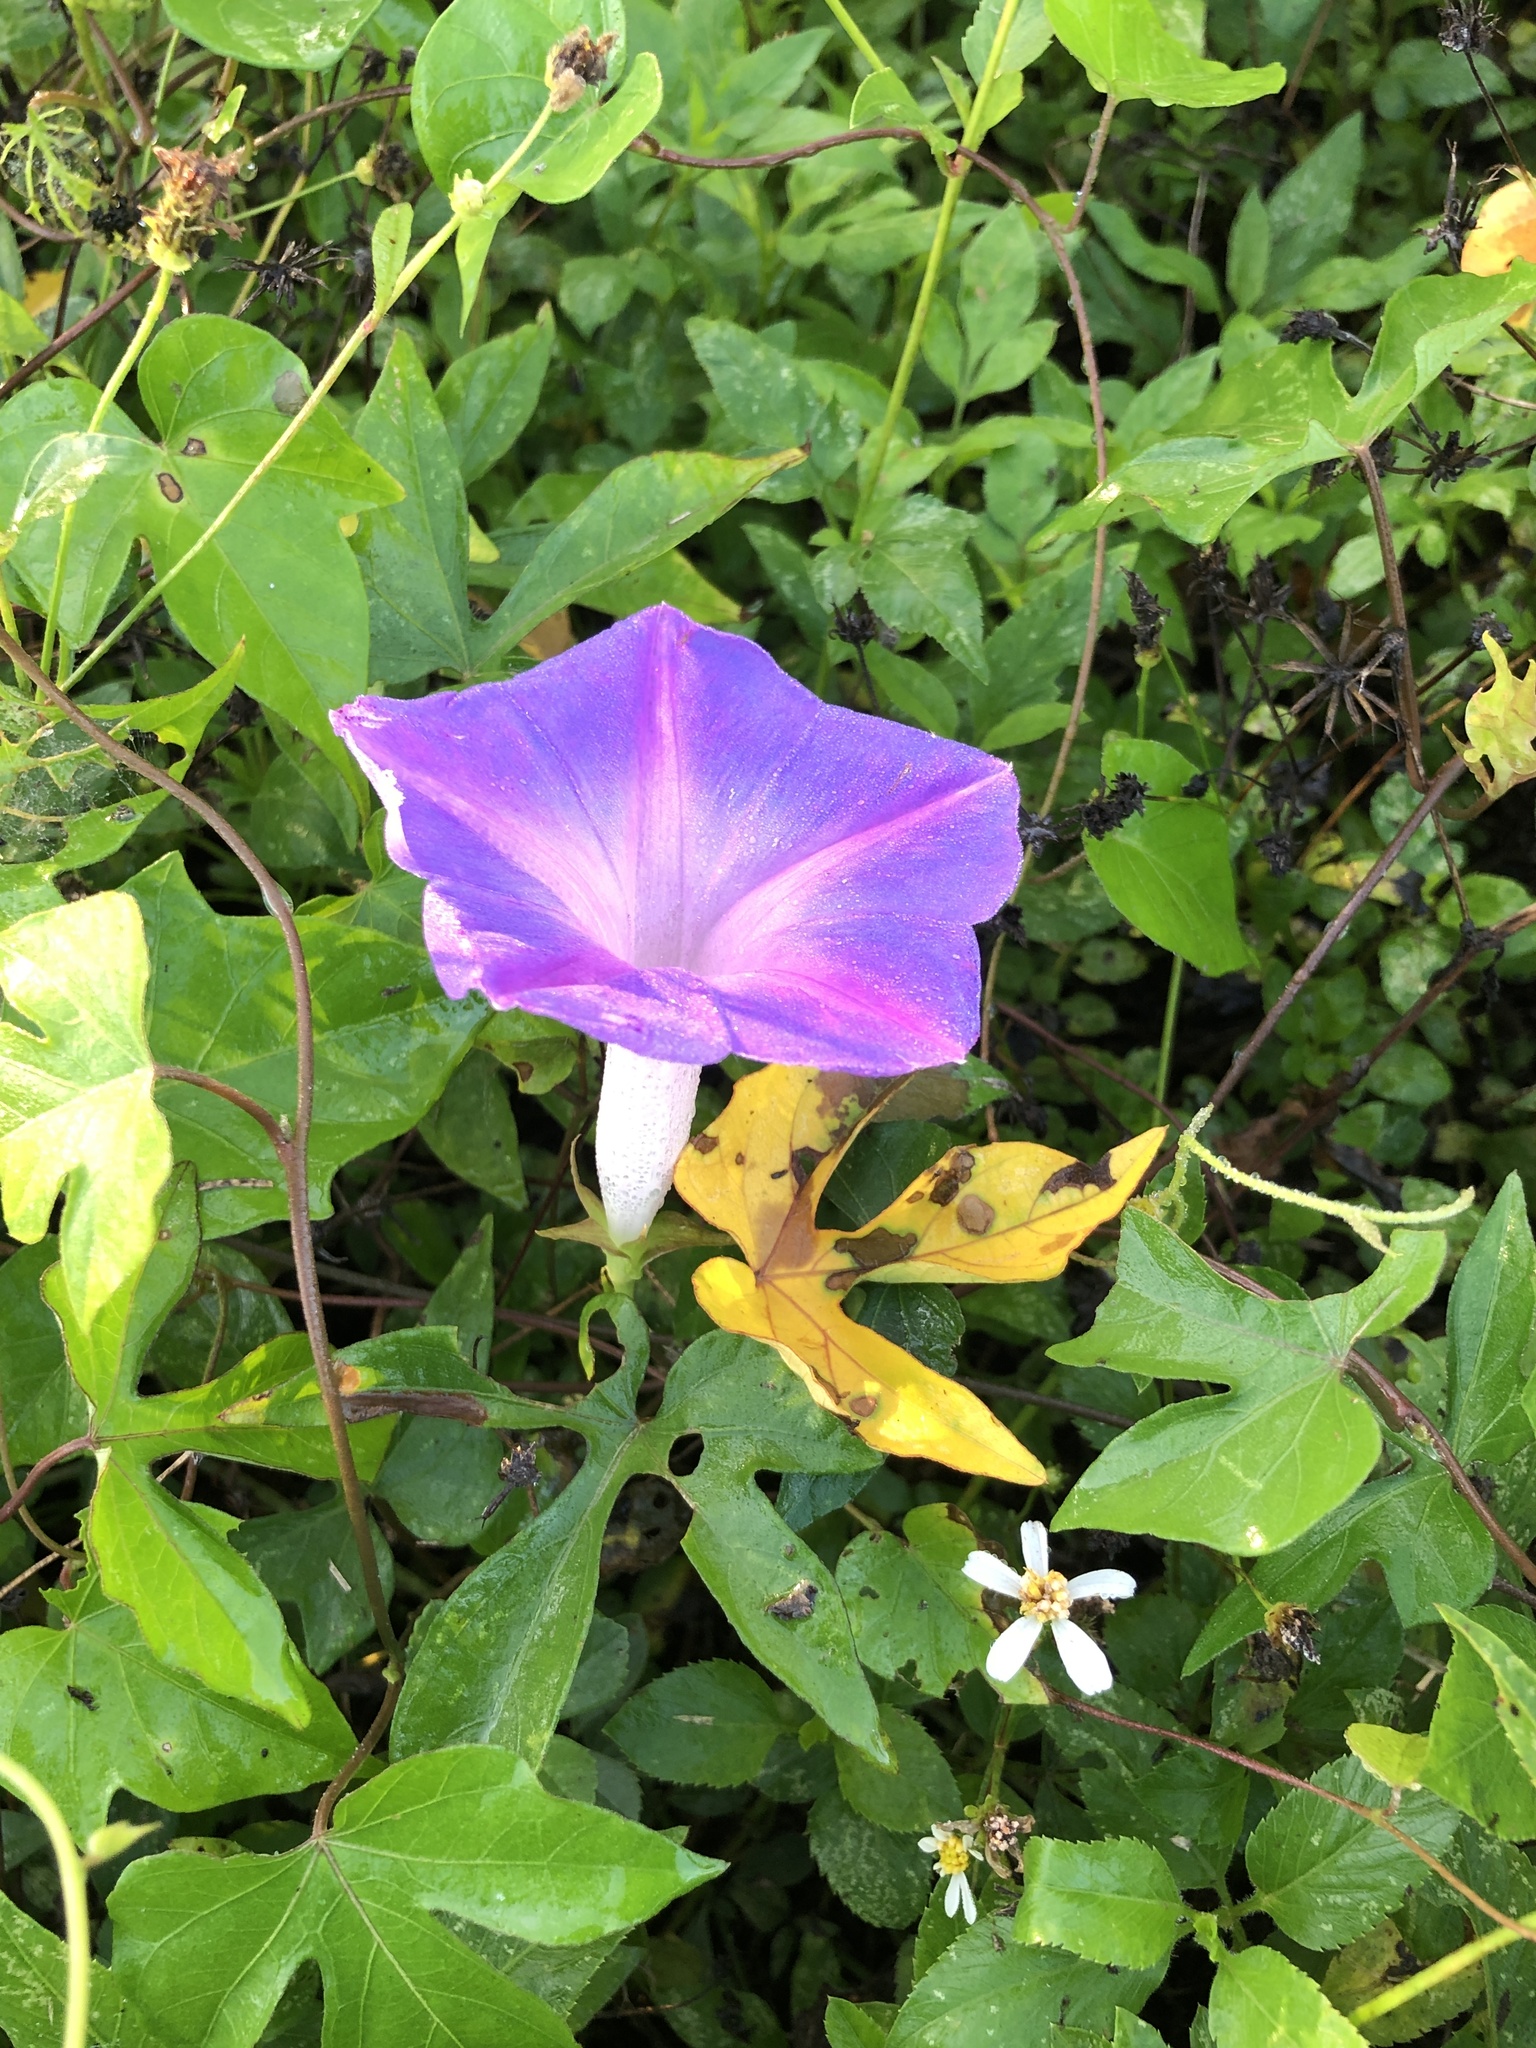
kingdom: Plantae
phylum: Tracheophyta
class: Magnoliopsida
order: Solanales
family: Convolvulaceae
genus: Ipomoea
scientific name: Ipomoea indica
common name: Blue dawnflower
